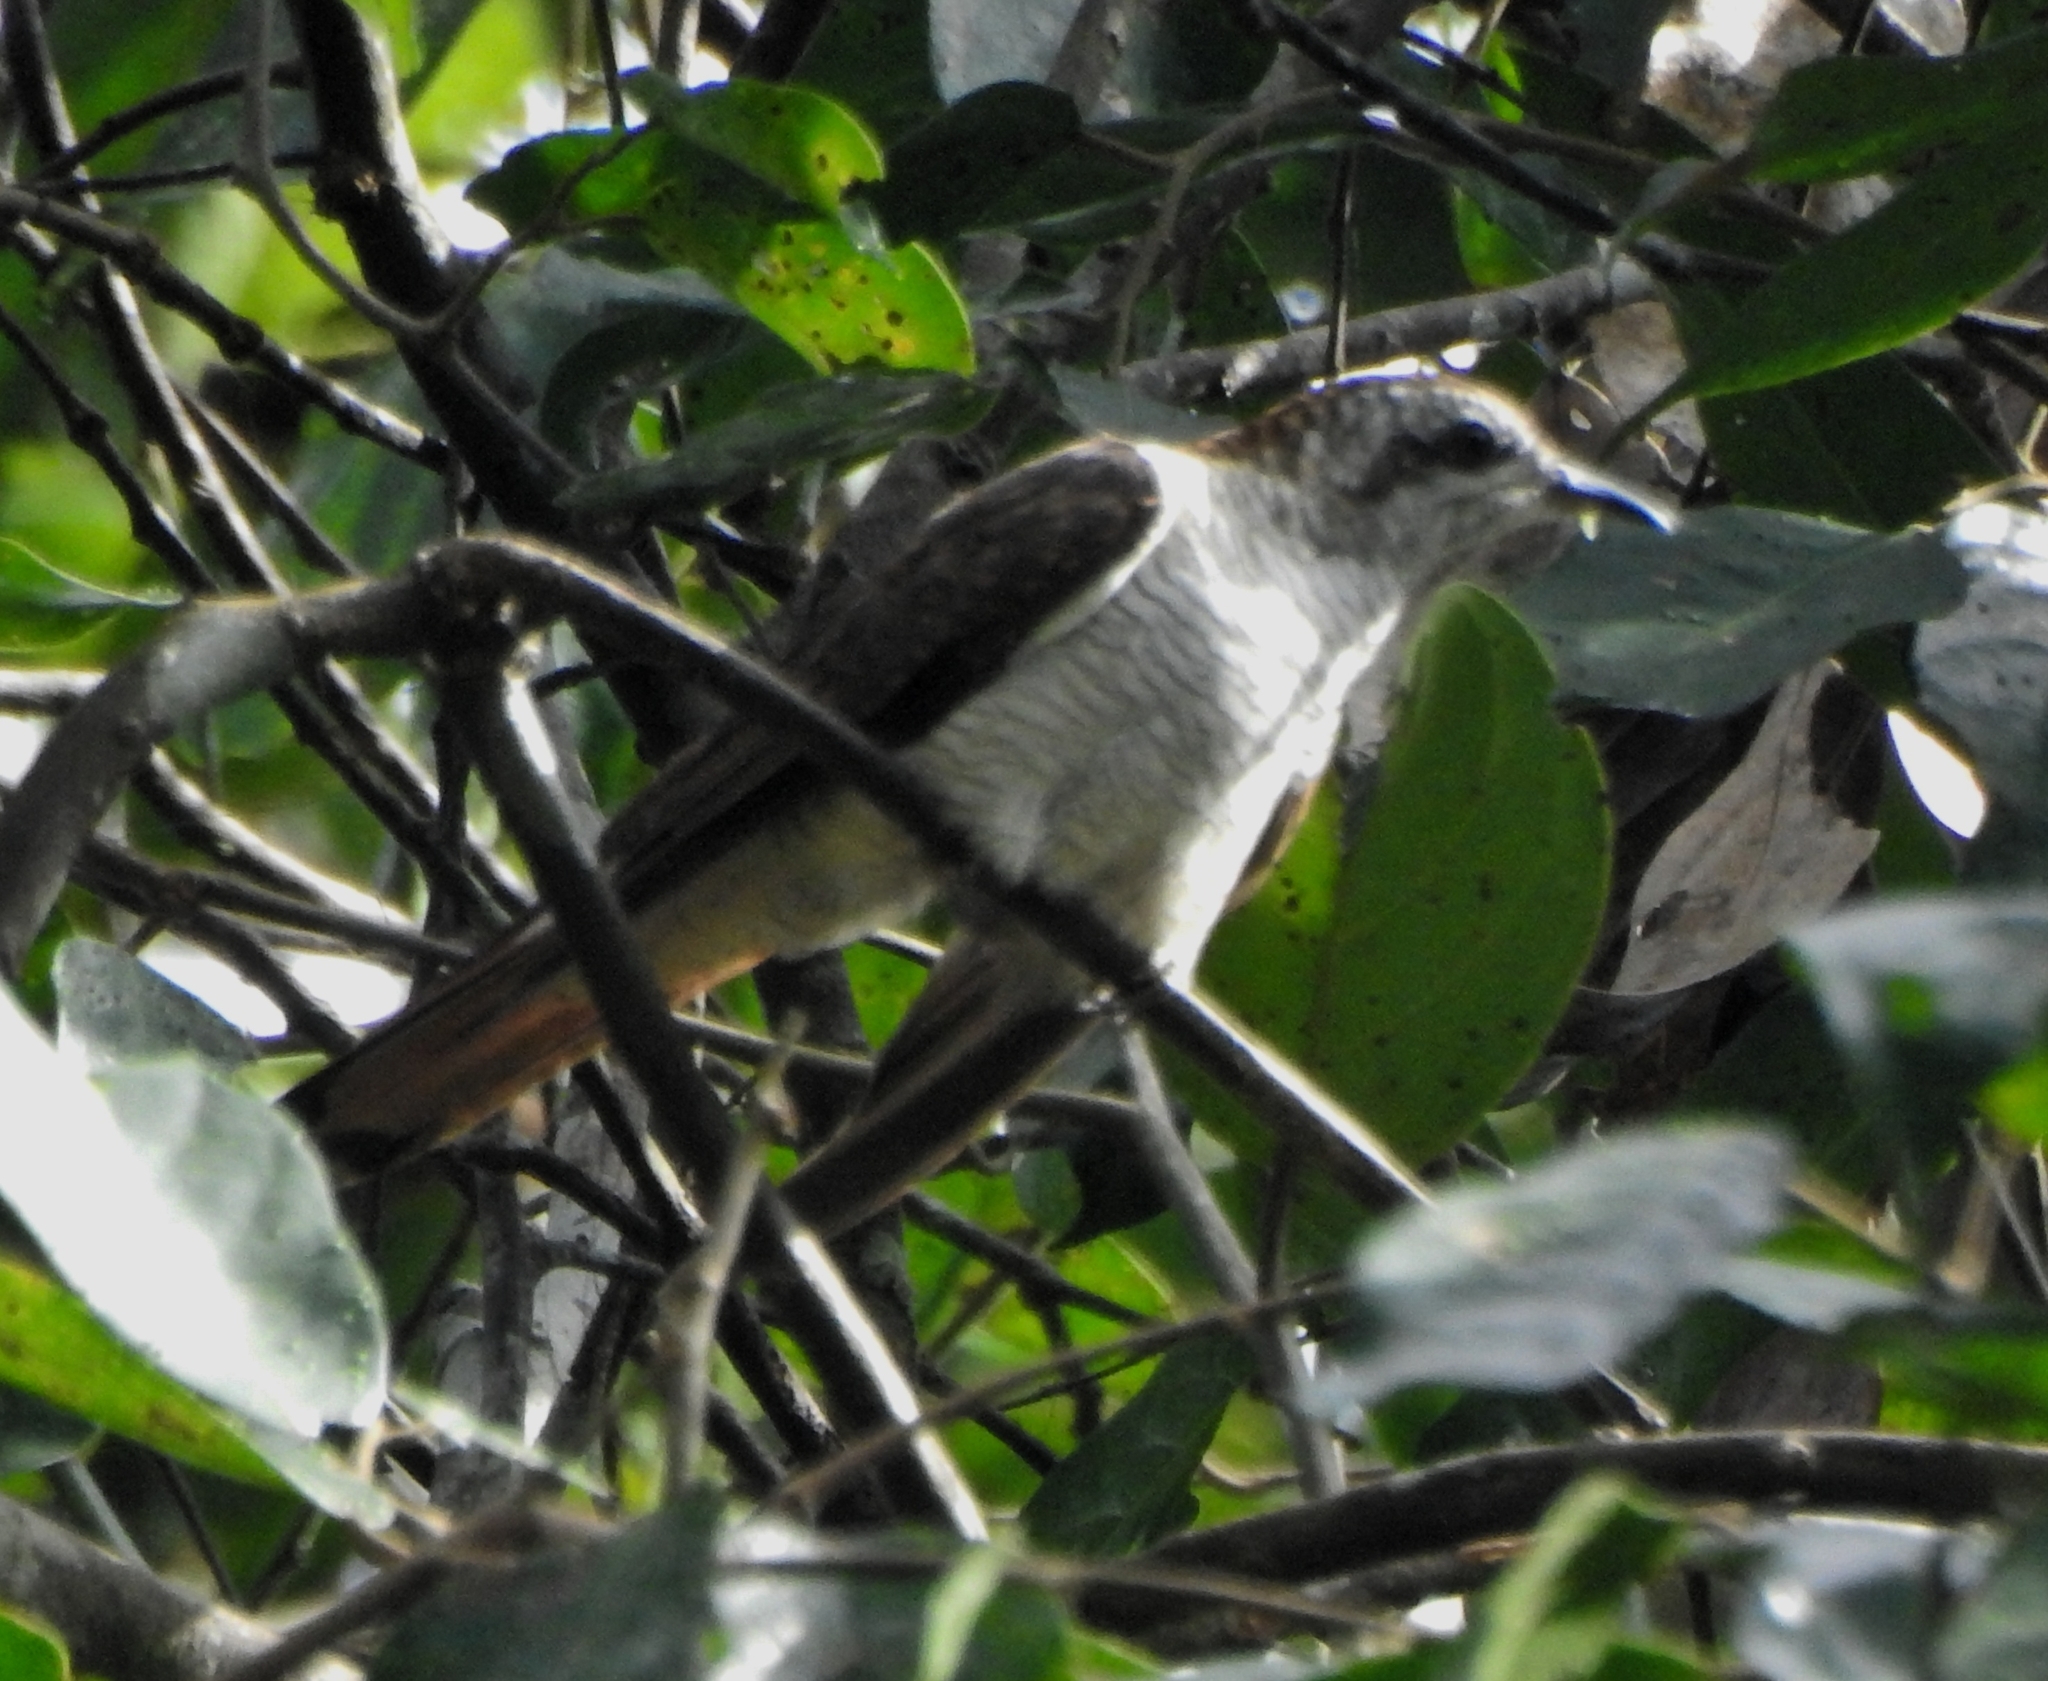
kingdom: Animalia
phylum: Chordata
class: Aves
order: Cuculiformes
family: Cuculidae
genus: Cacomantis
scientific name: Cacomantis sonneratii
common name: Banded bay cuckoo
